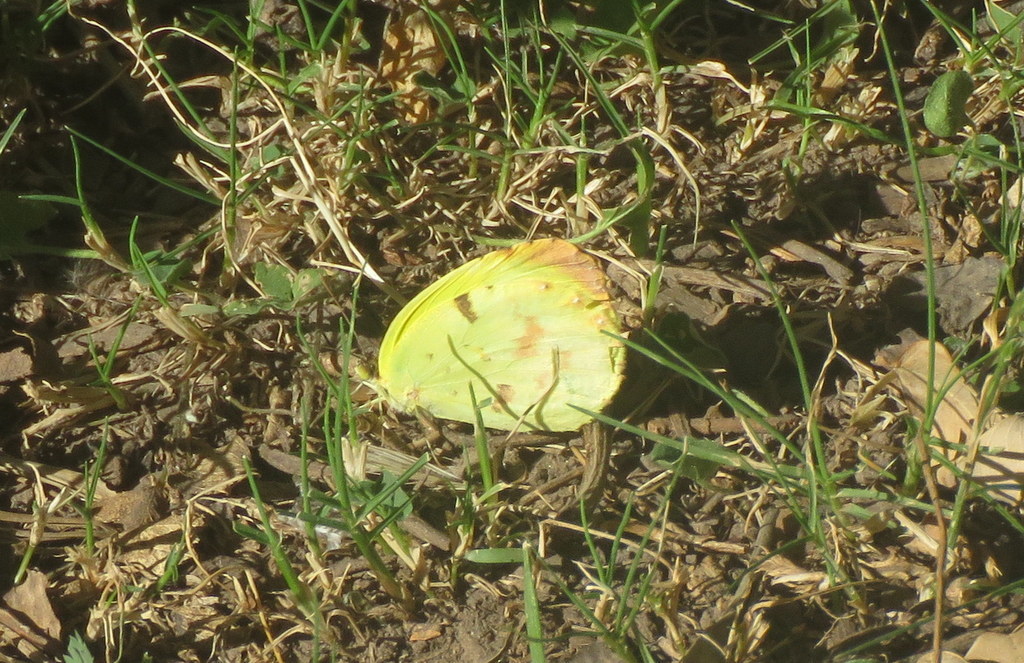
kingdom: Animalia
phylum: Arthropoda
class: Insecta
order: Lepidoptera
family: Pieridae
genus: Teriocolias
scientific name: Teriocolias
